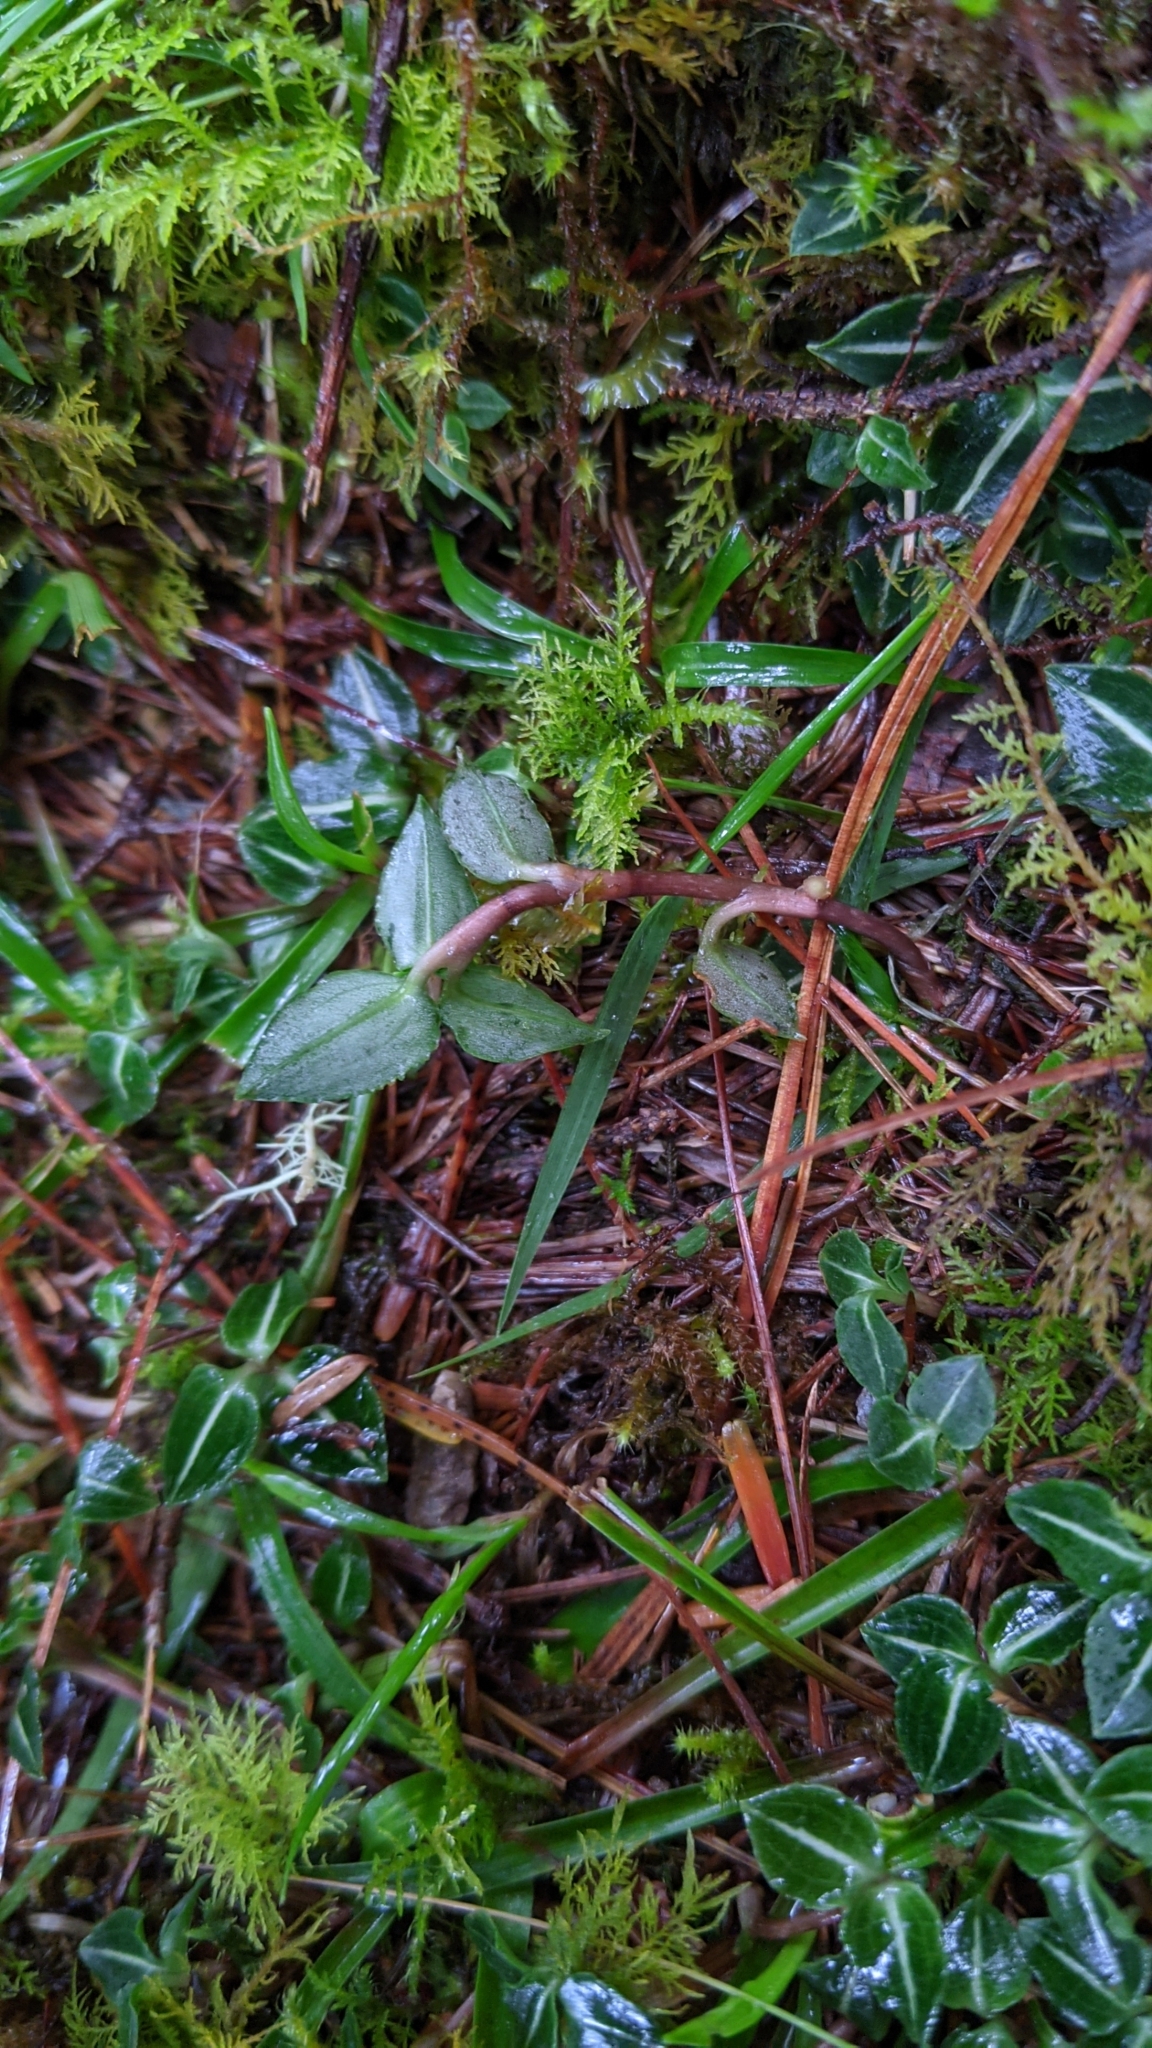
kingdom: Plantae
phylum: Tracheophyta
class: Liliopsida
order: Asparagales
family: Orchidaceae
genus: Goodyera
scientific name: Goodyera velutina
